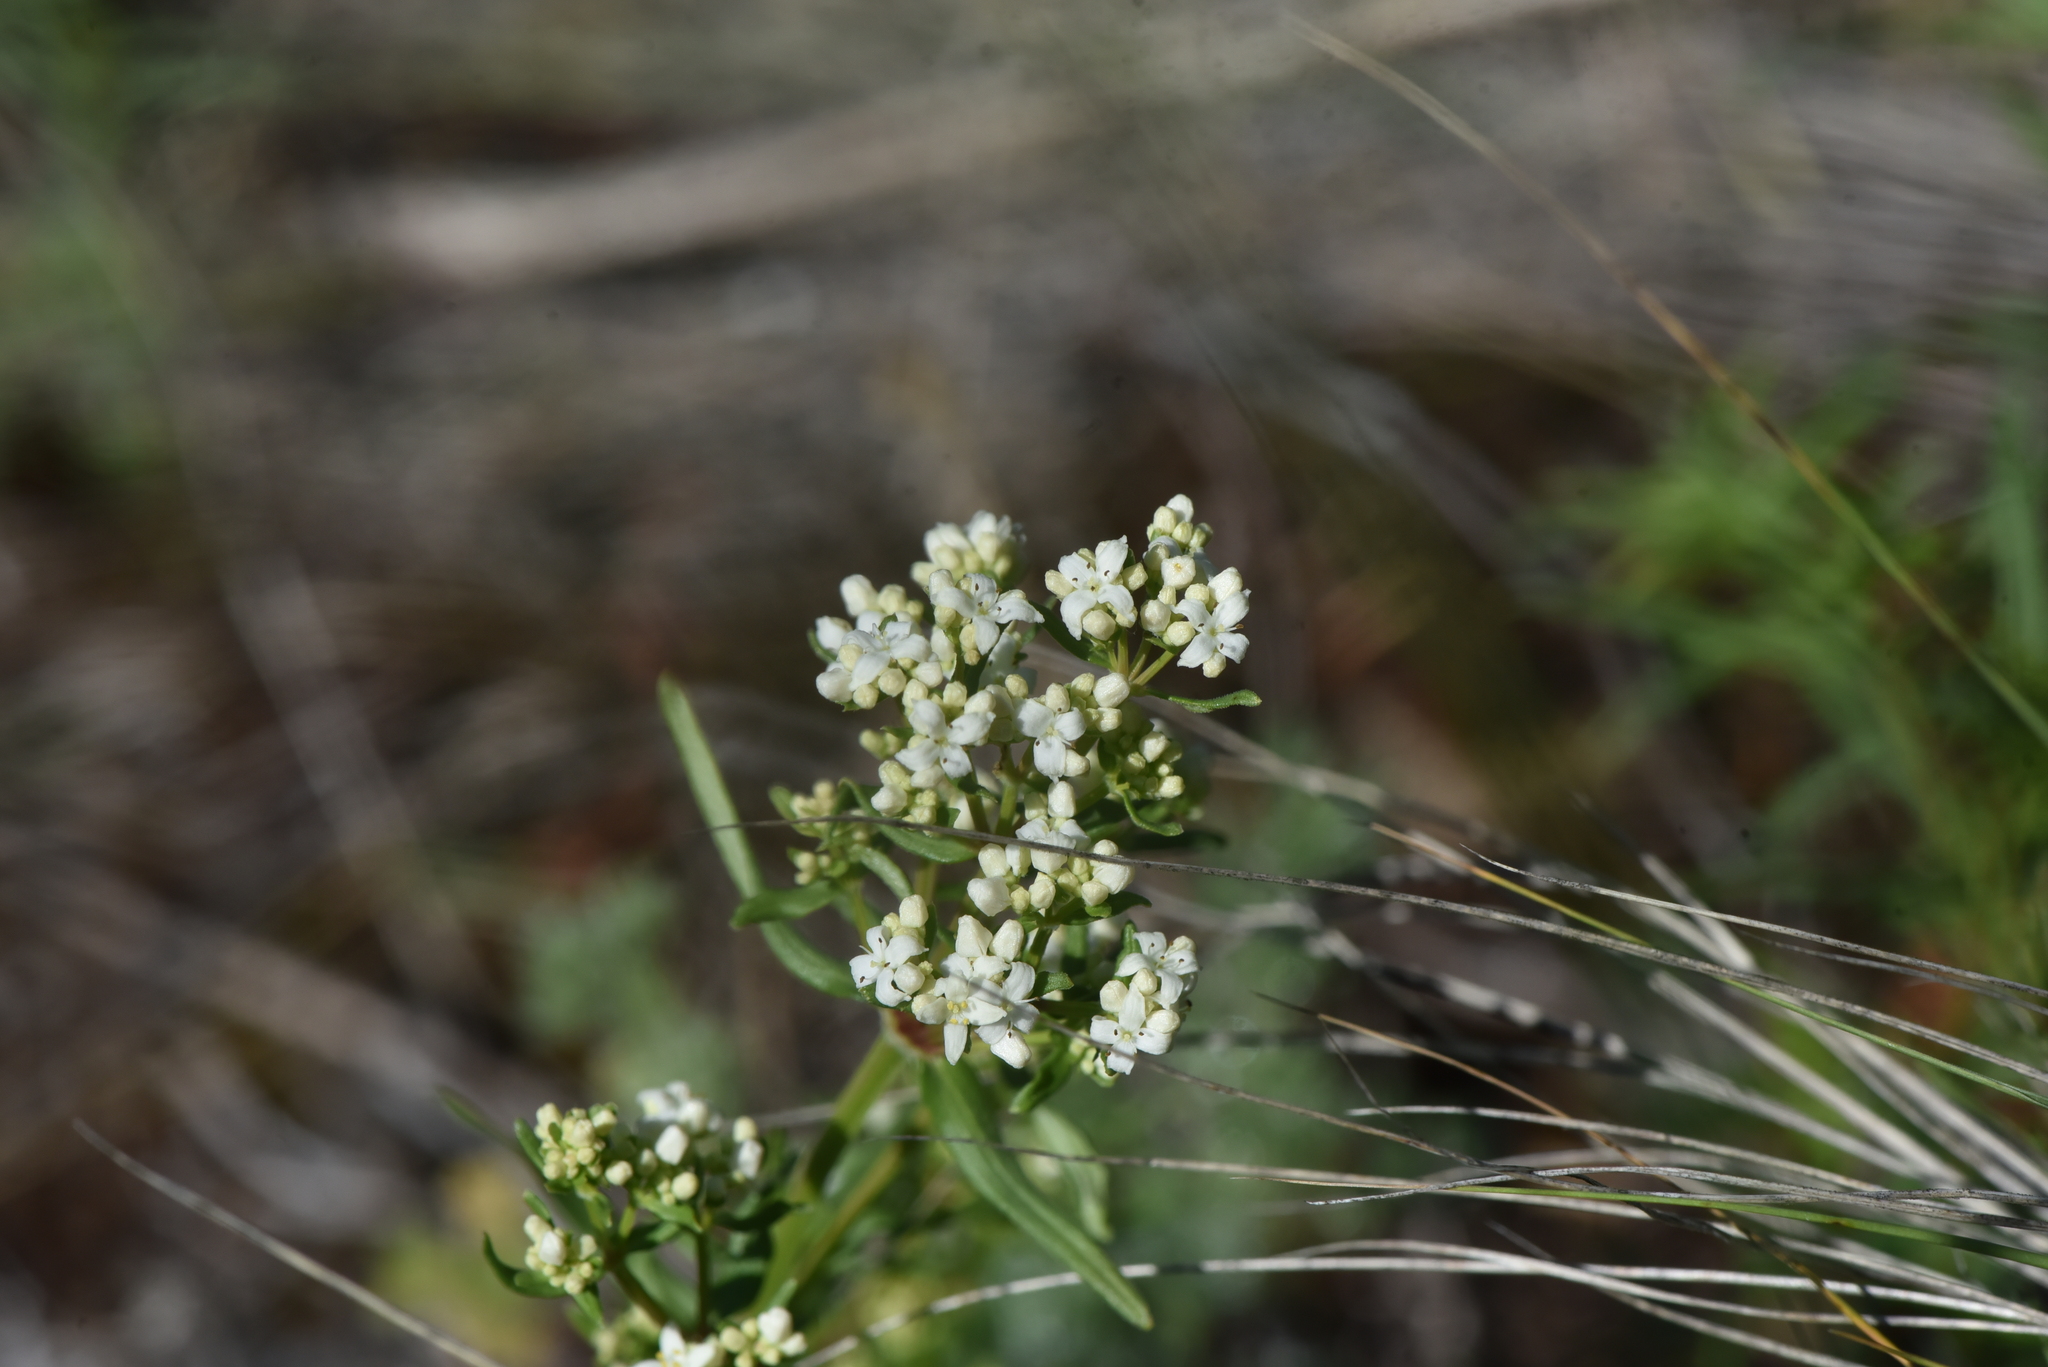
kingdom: Plantae
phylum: Tracheophyta
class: Magnoliopsida
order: Gentianales
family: Rubiaceae
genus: Galium
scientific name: Galium boreale
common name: Northern bedstraw
